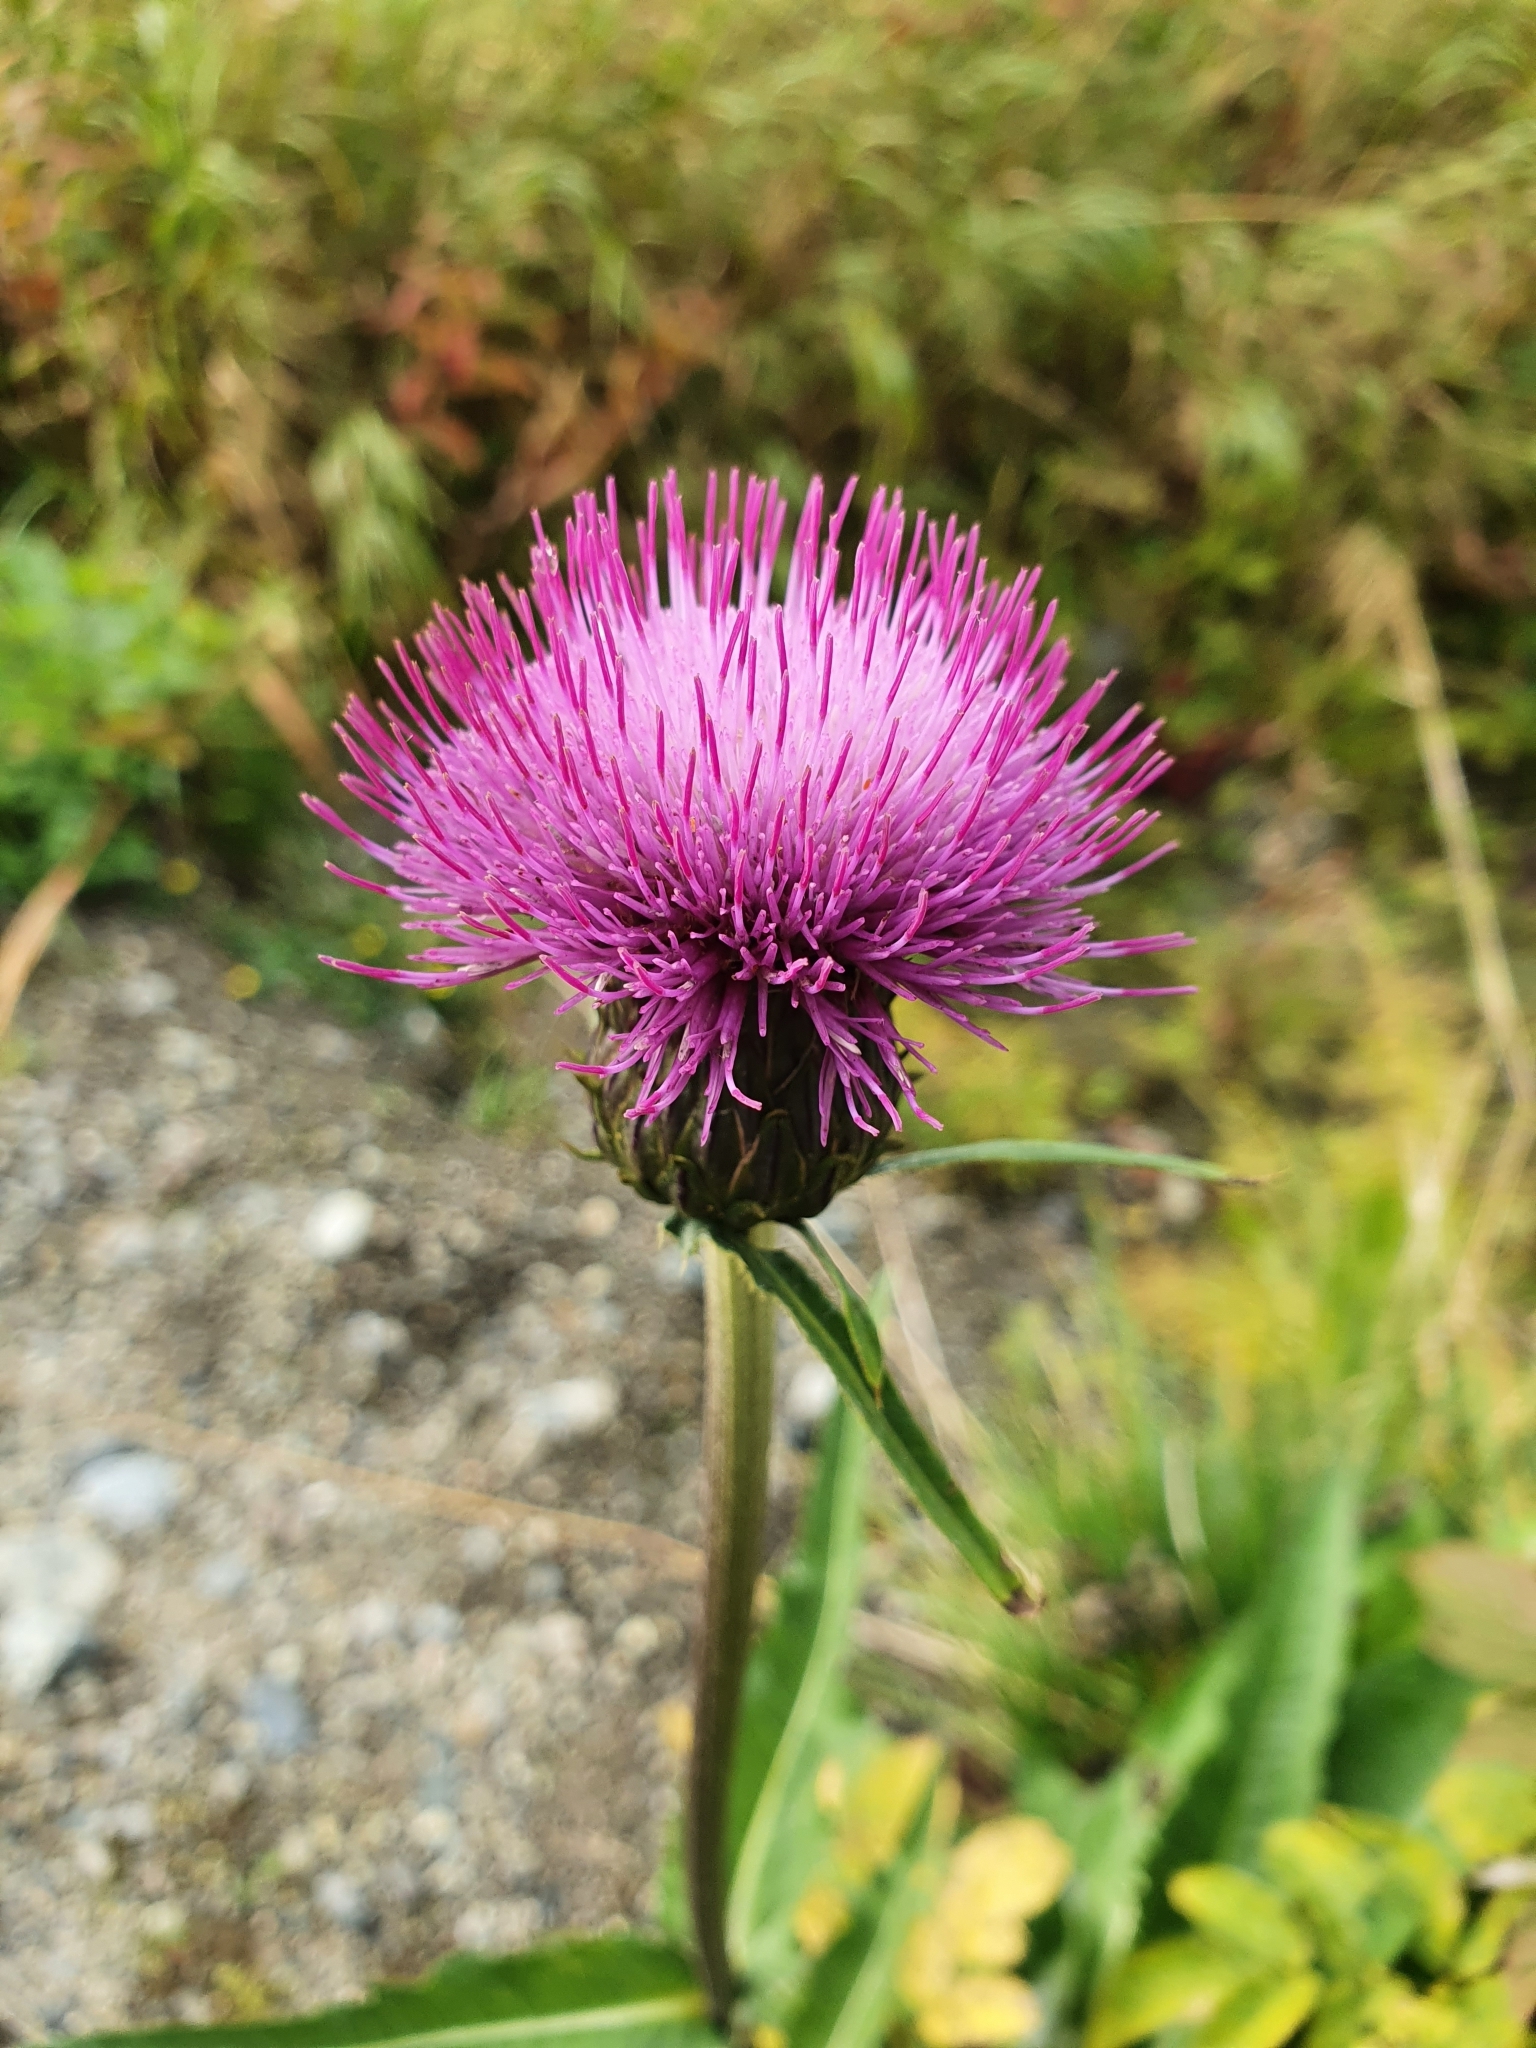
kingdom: Plantae
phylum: Tracheophyta
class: Magnoliopsida
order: Asterales
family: Asteraceae
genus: Cirsium
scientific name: Cirsium heterophyllum
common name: Melancholy thistle
